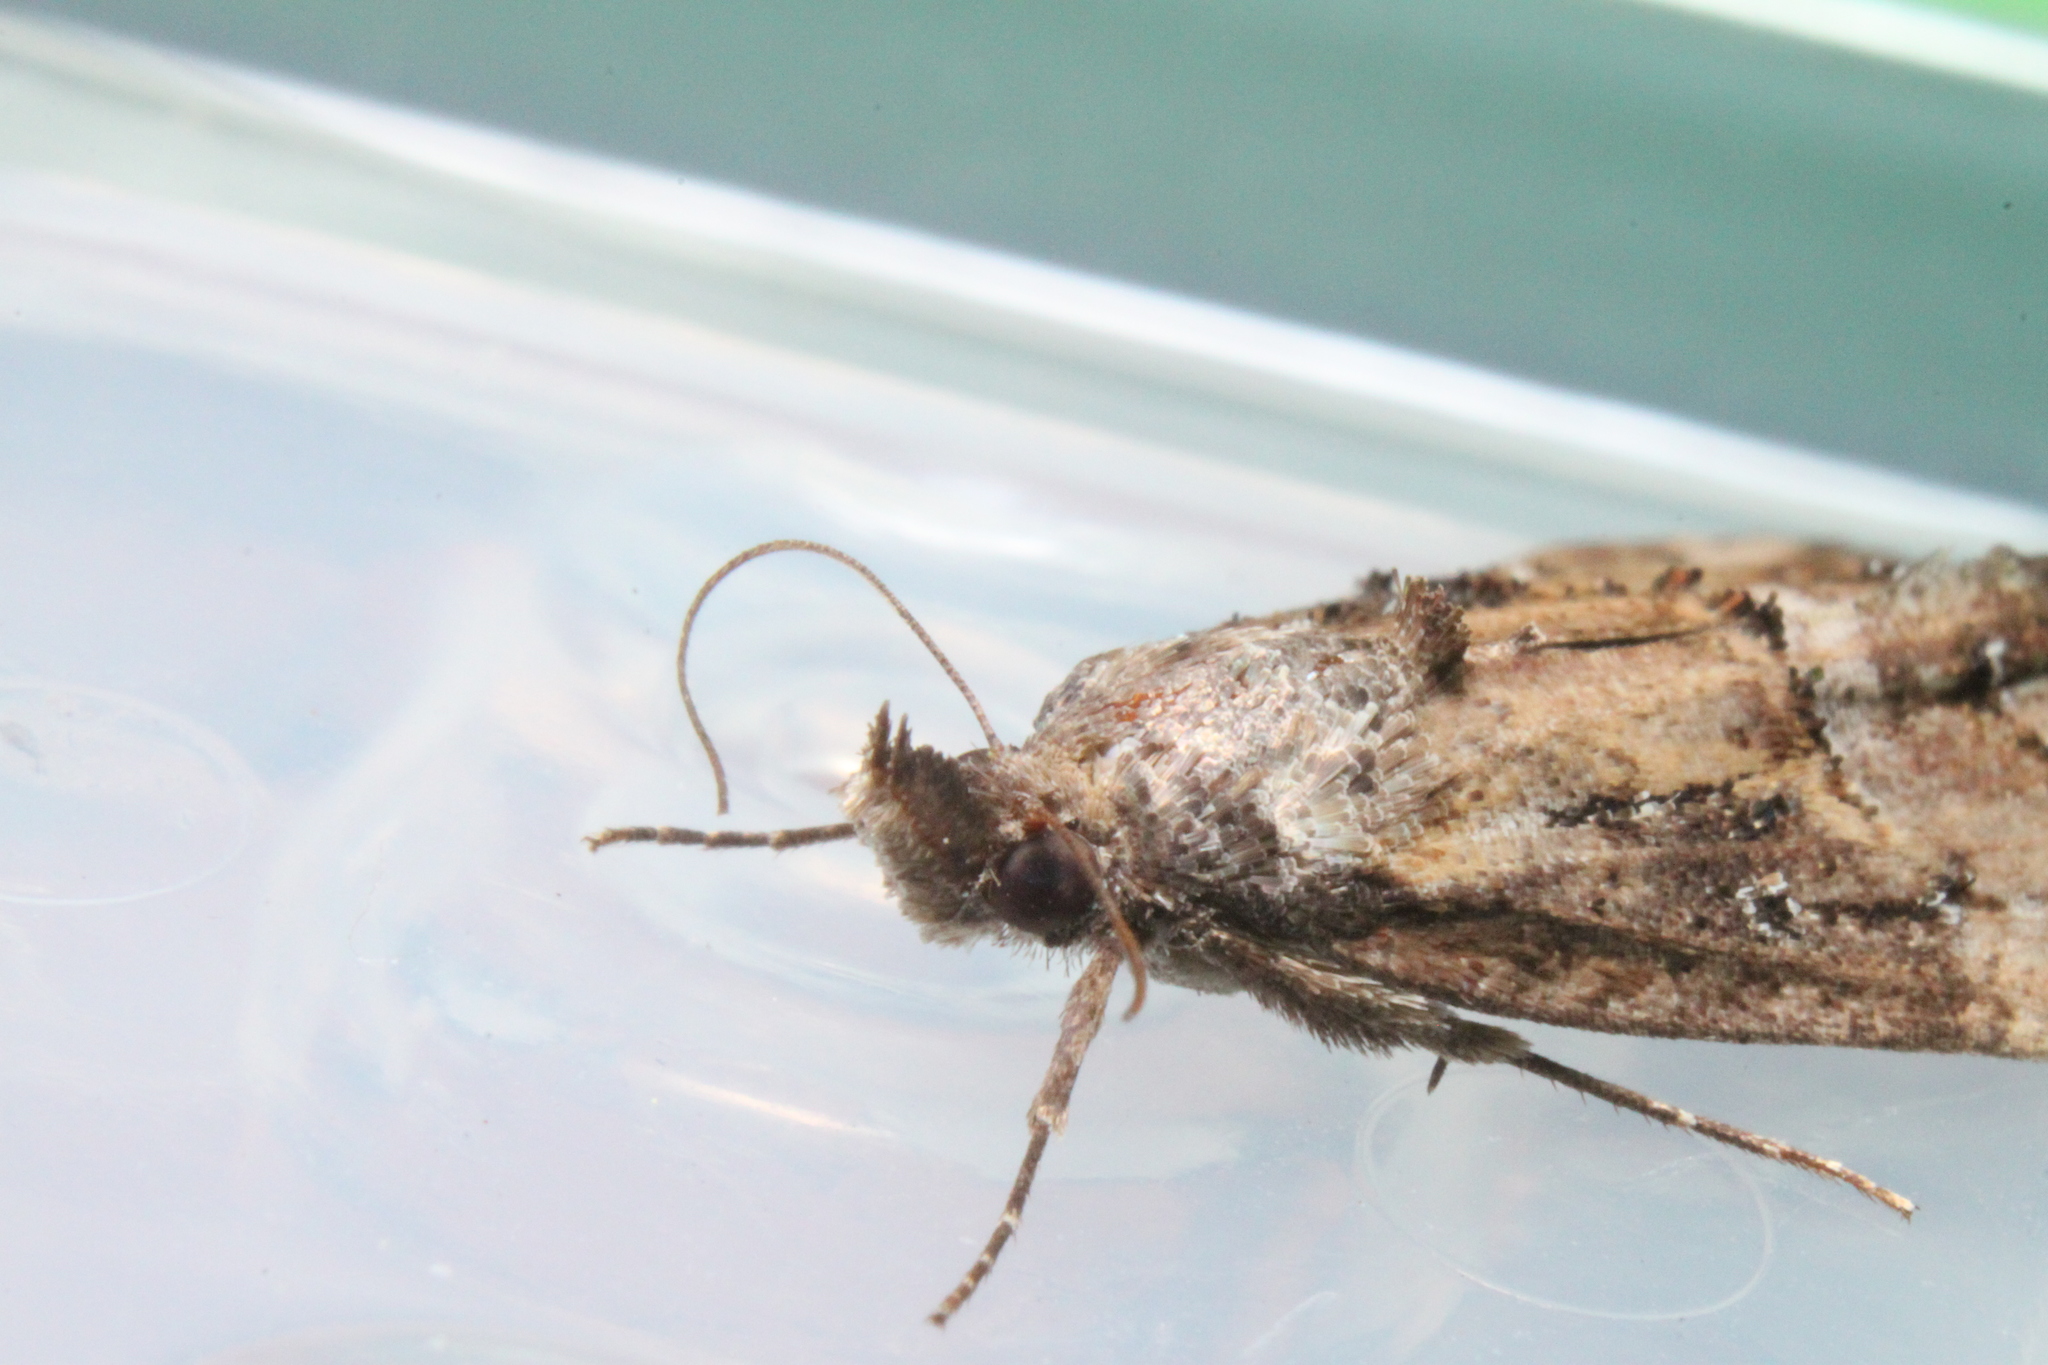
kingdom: Animalia
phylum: Arthropoda
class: Insecta
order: Lepidoptera
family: Erebidae
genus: Hypena
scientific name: Hypena scabra
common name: Green cloverworm
